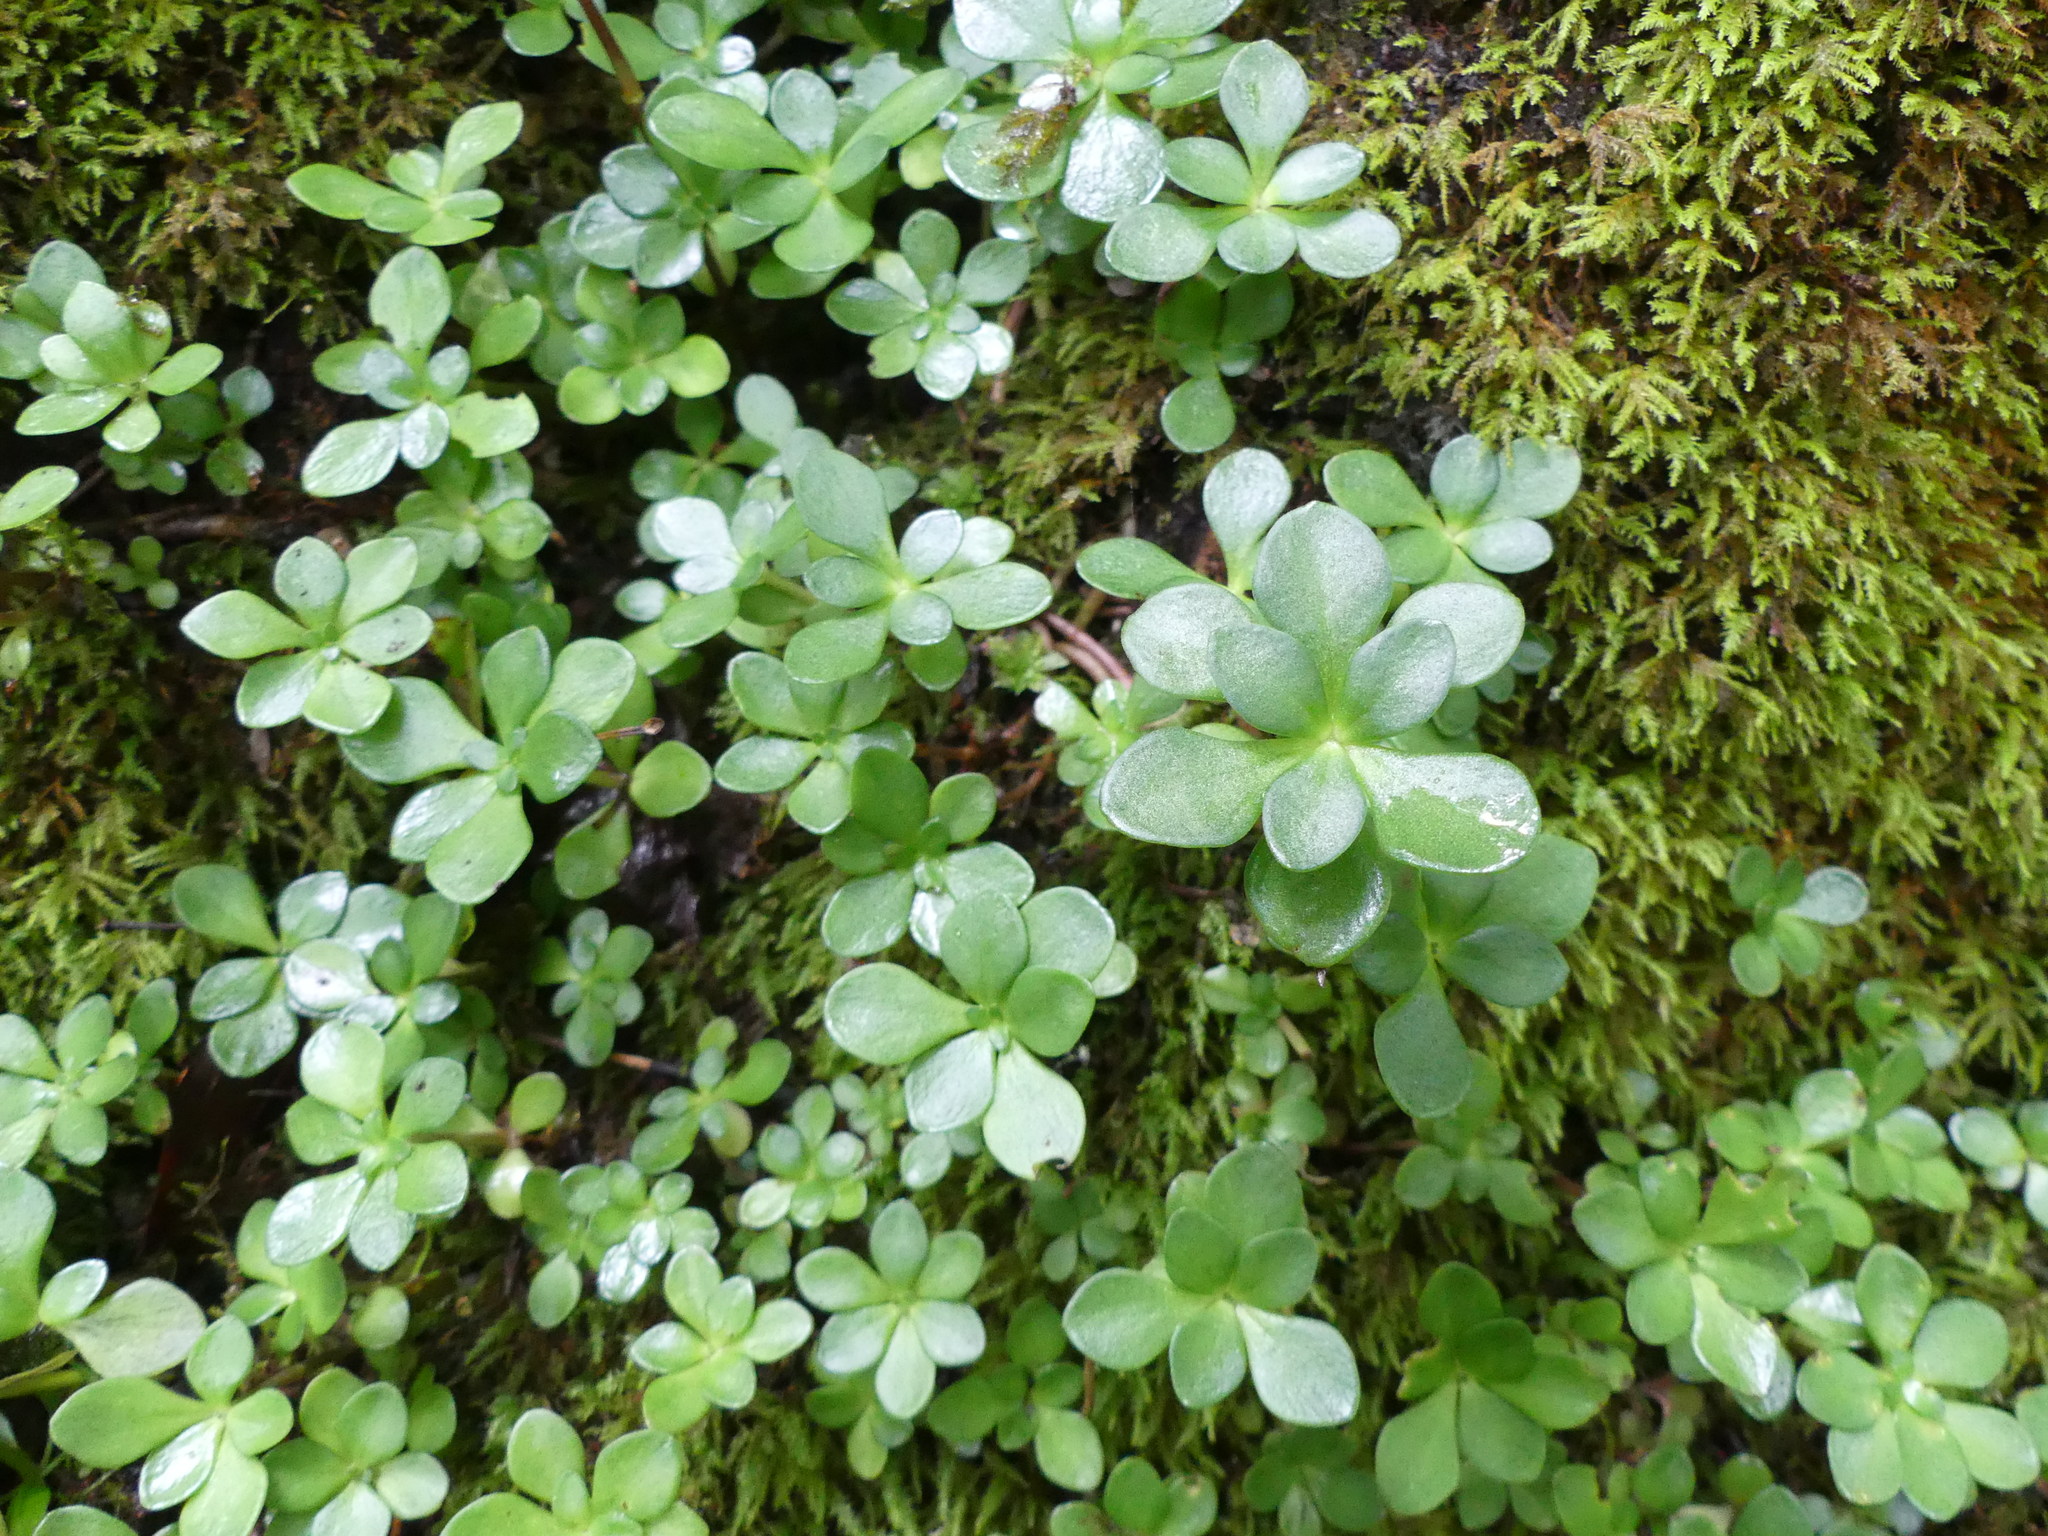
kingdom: Plantae
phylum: Tracheophyta
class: Magnoliopsida
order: Saxifragales
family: Crassulaceae
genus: Sedum
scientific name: Sedum ternatum
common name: Wild stonecrop
